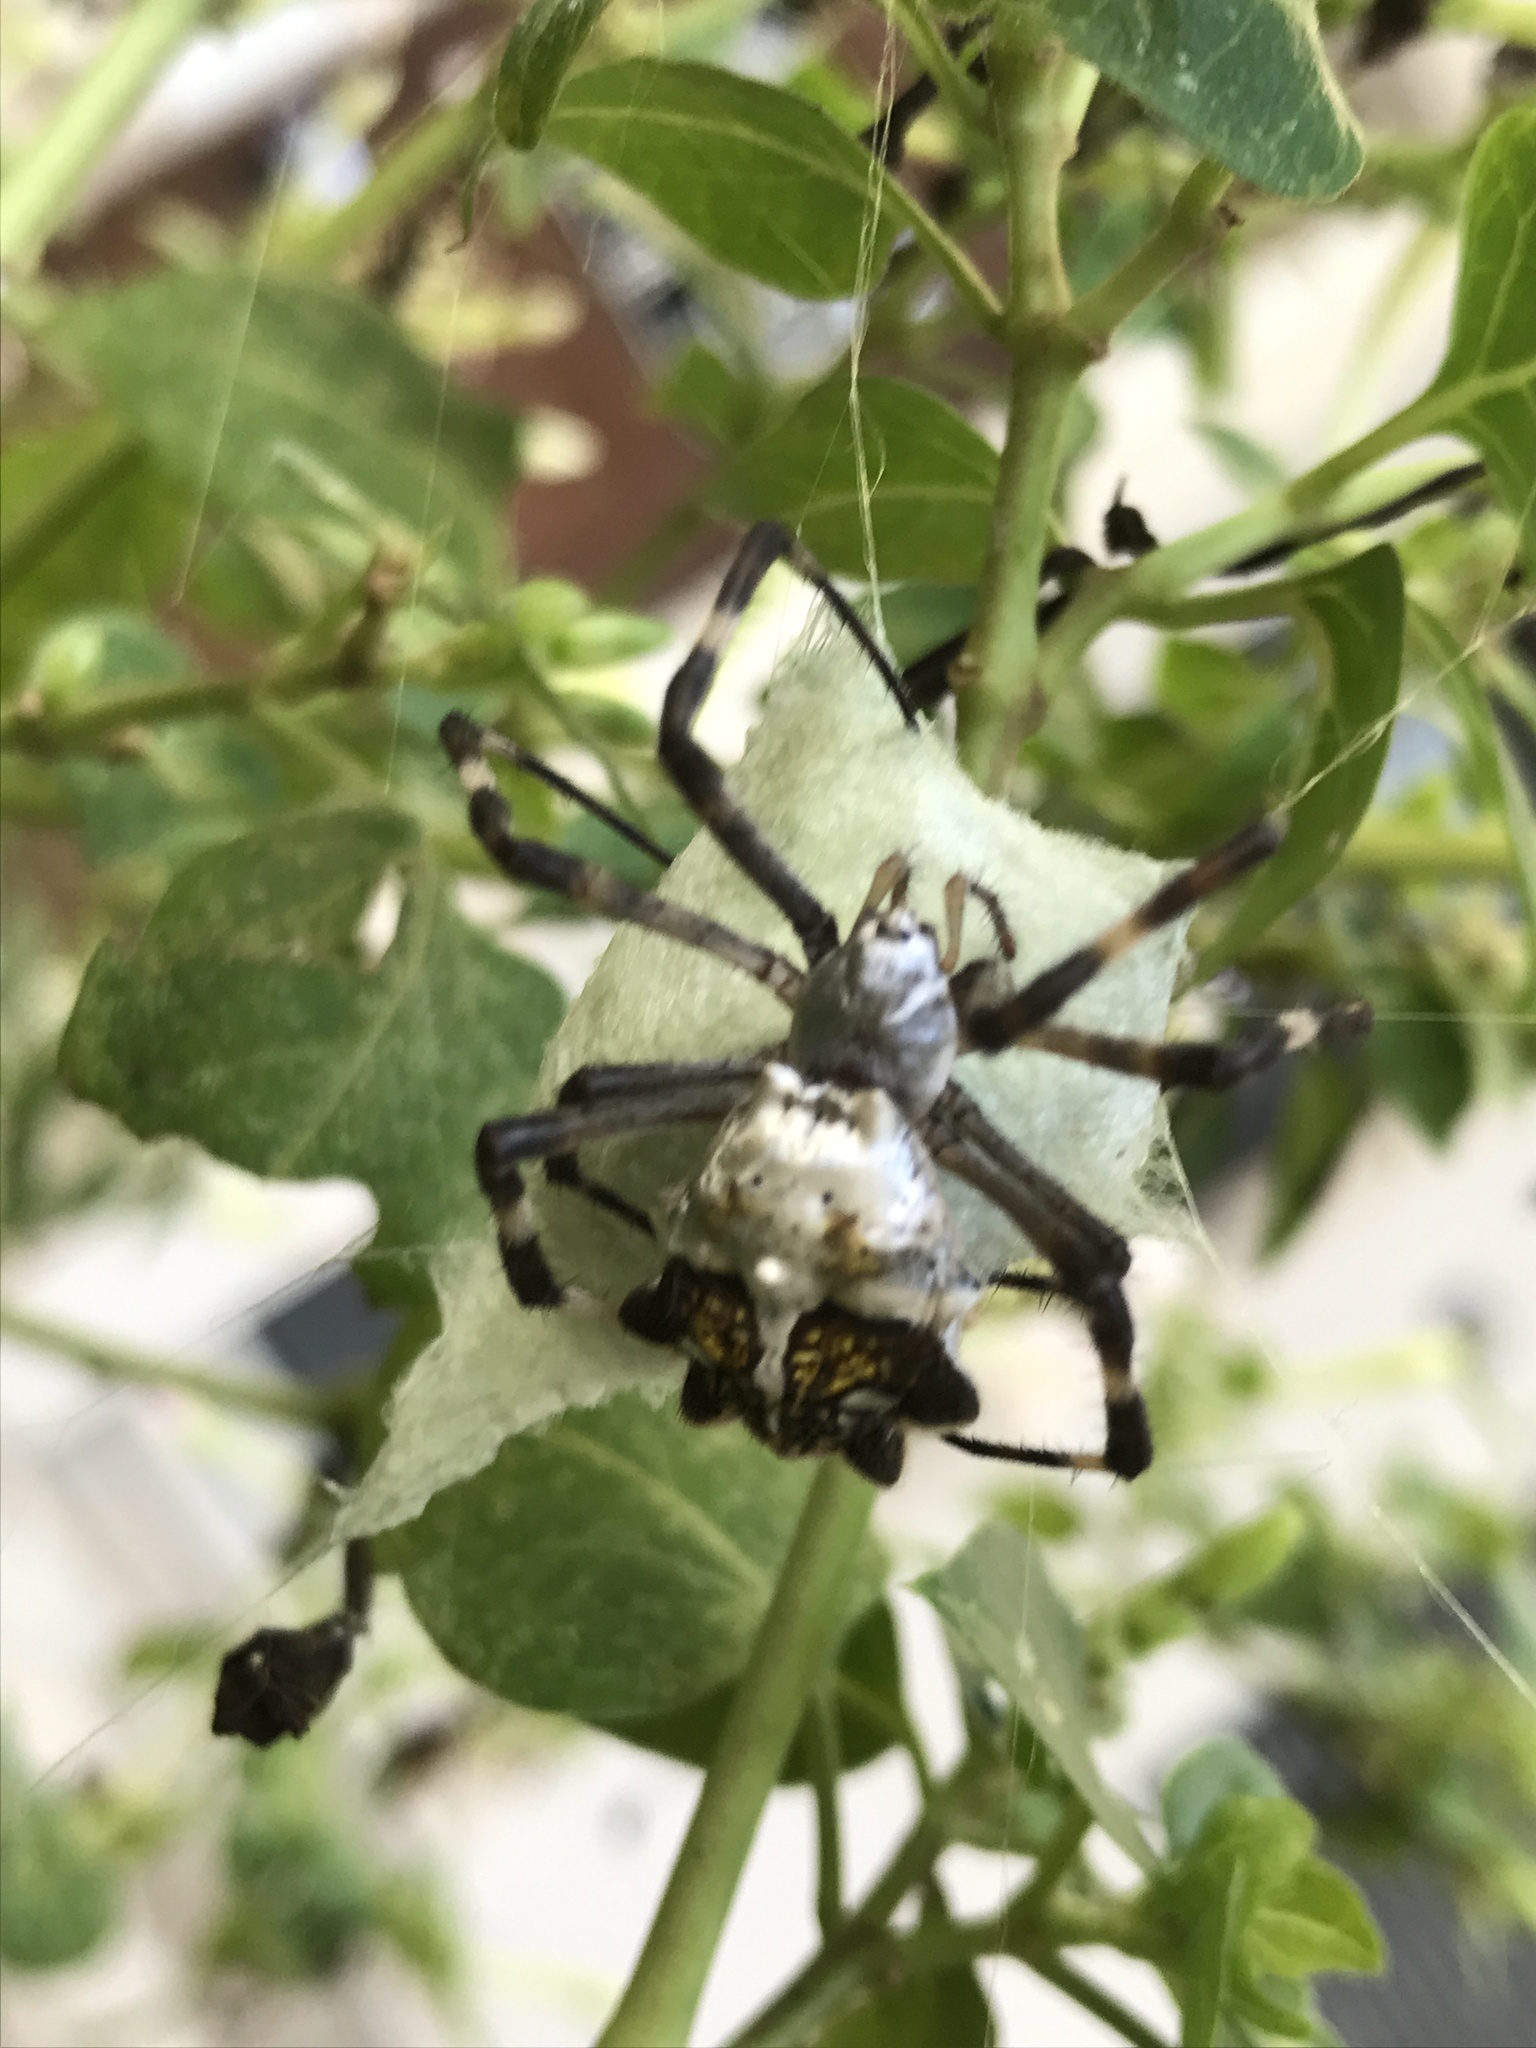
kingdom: Animalia
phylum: Arthropoda
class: Arachnida
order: Araneae
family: Araneidae
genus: Argiope
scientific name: Argiope argentata
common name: Orb weavers
